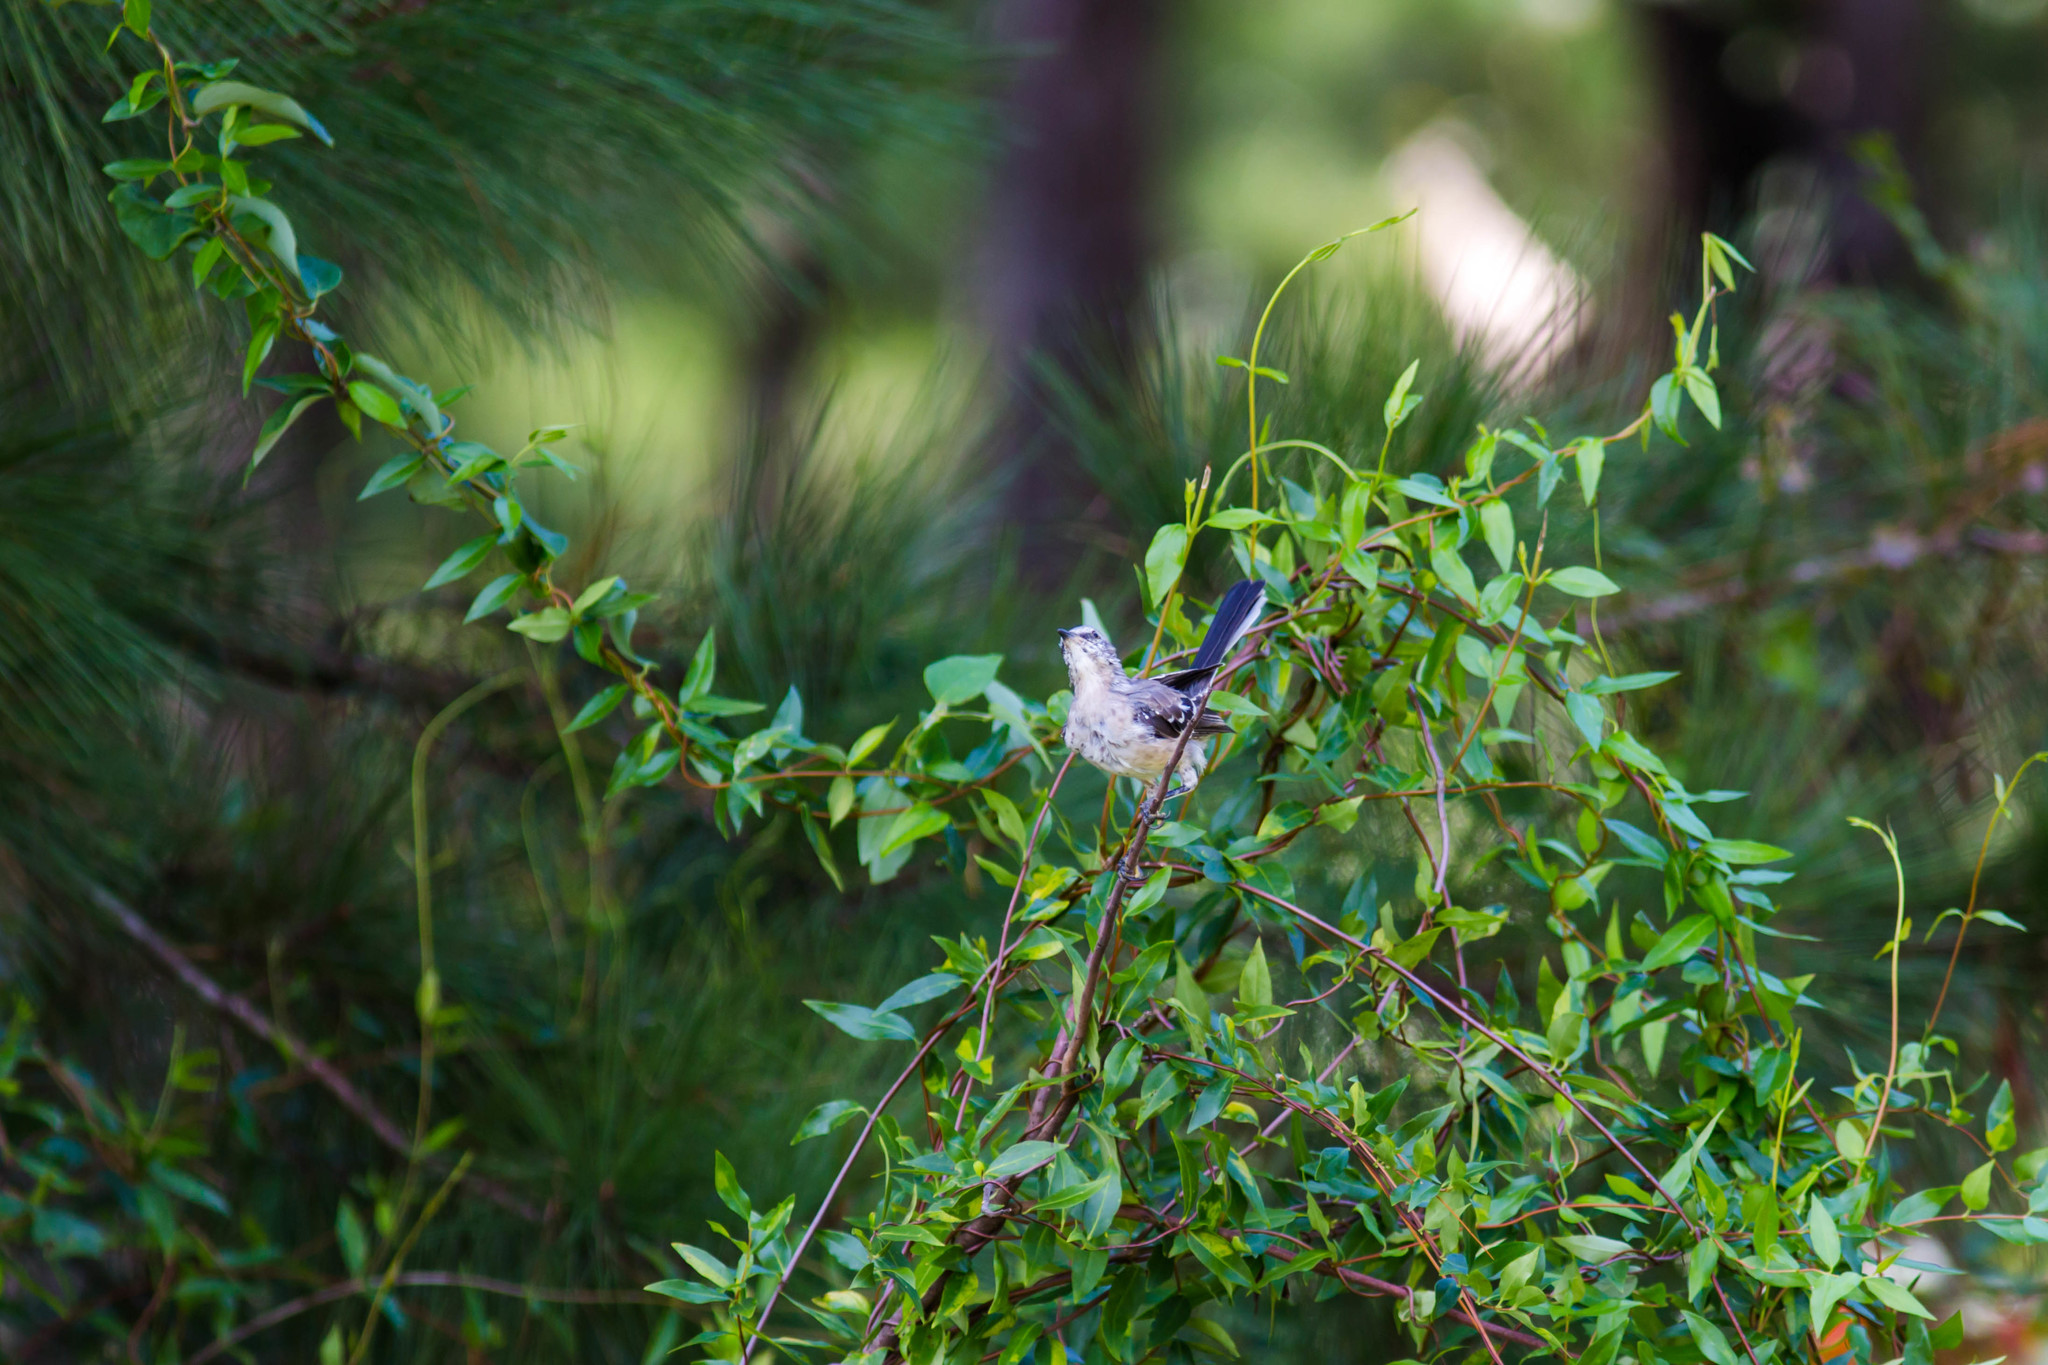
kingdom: Animalia
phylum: Chordata
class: Aves
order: Passeriformes
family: Mimidae
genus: Mimus
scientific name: Mimus polyglottos
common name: Northern mockingbird
